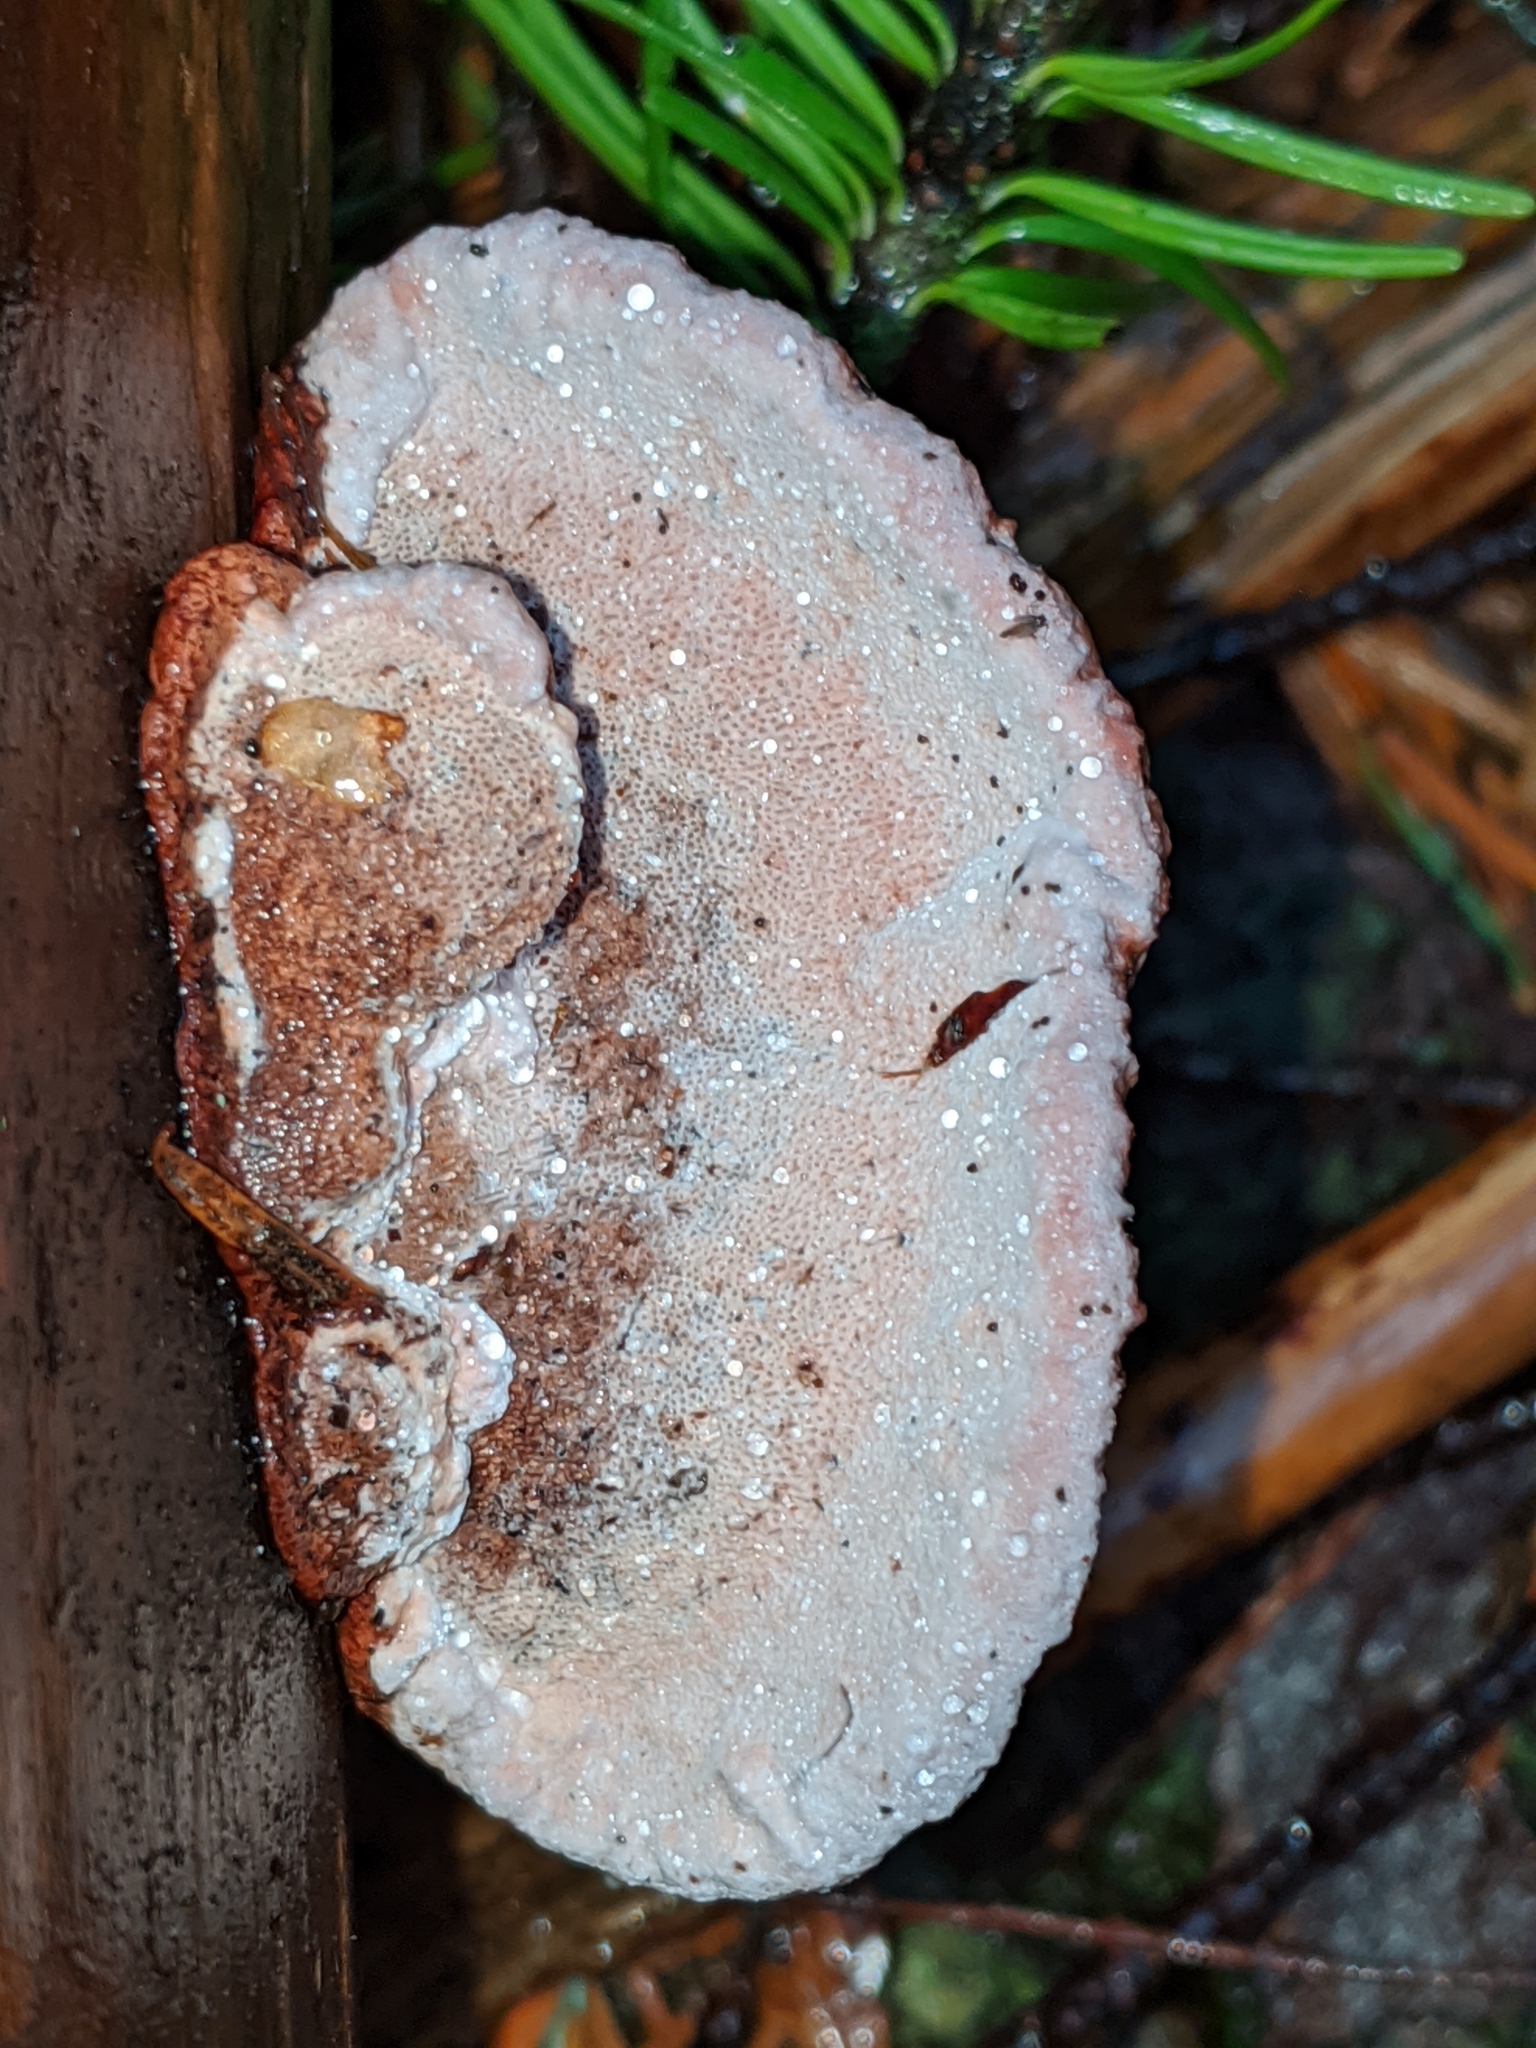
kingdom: Fungi
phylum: Basidiomycota
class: Agaricomycetes
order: Polyporales
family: Fomitopsidaceae
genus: Rhodofomes
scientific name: Rhodofomes cajanderi
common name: Rosy conk
